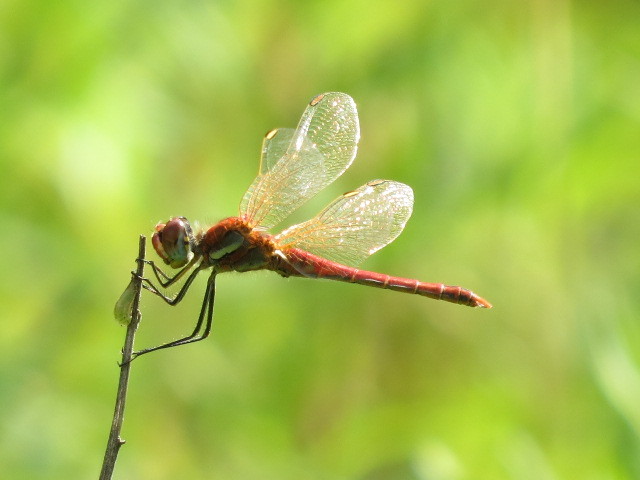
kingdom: Animalia
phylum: Arthropoda
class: Insecta
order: Odonata
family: Libellulidae
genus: Sympetrum
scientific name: Sympetrum fonscolombii
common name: Red-veined darter
